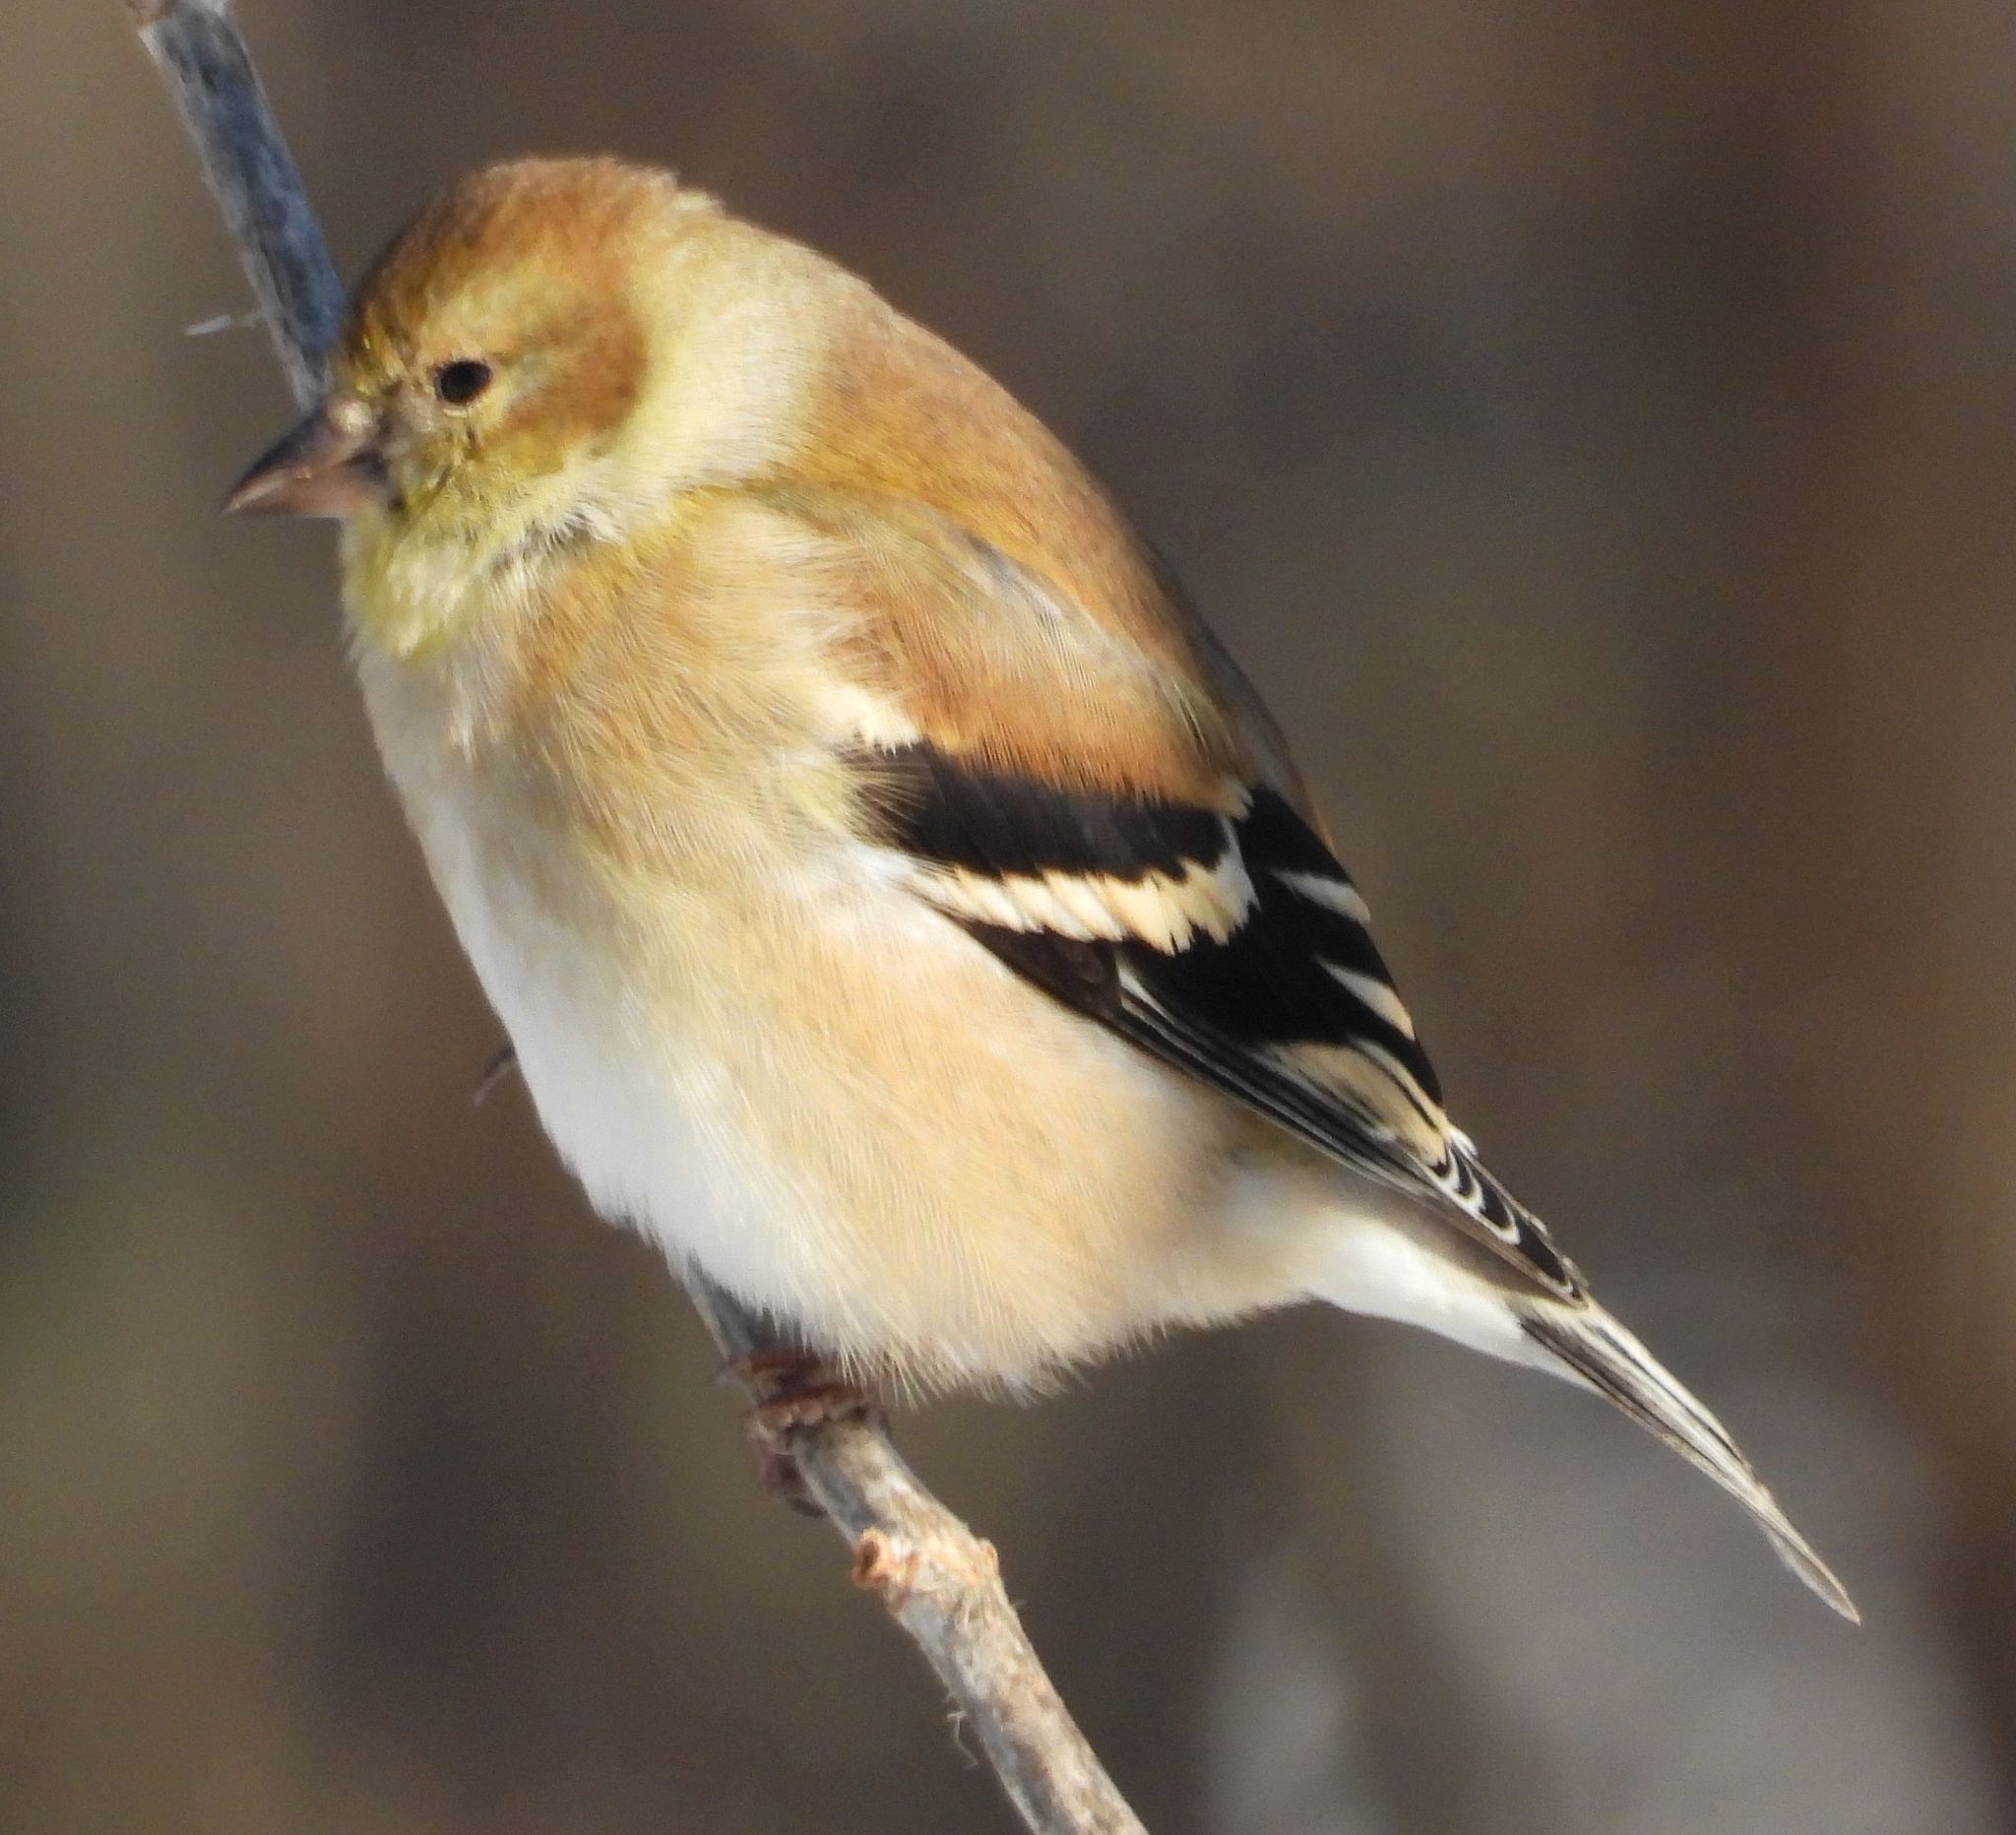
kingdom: Animalia
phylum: Chordata
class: Aves
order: Passeriformes
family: Fringillidae
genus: Spinus
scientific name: Spinus tristis
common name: American goldfinch
